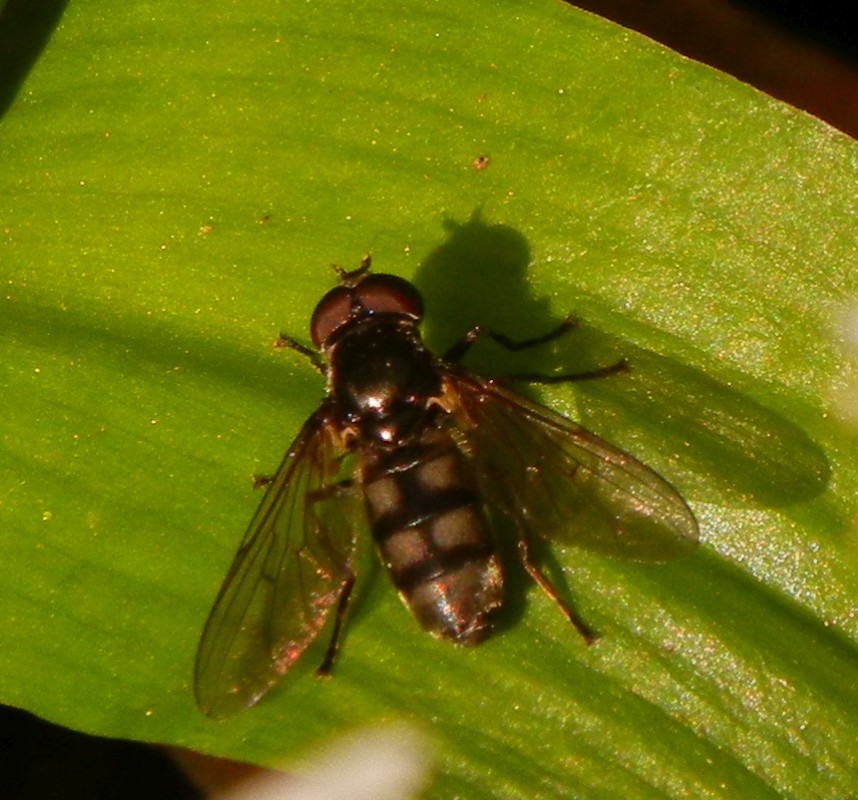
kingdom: Animalia
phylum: Arthropoda
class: Insecta
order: Diptera
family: Syrphidae
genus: Portevinia
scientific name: Portevinia maculata
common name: Ramson's hoverfly
